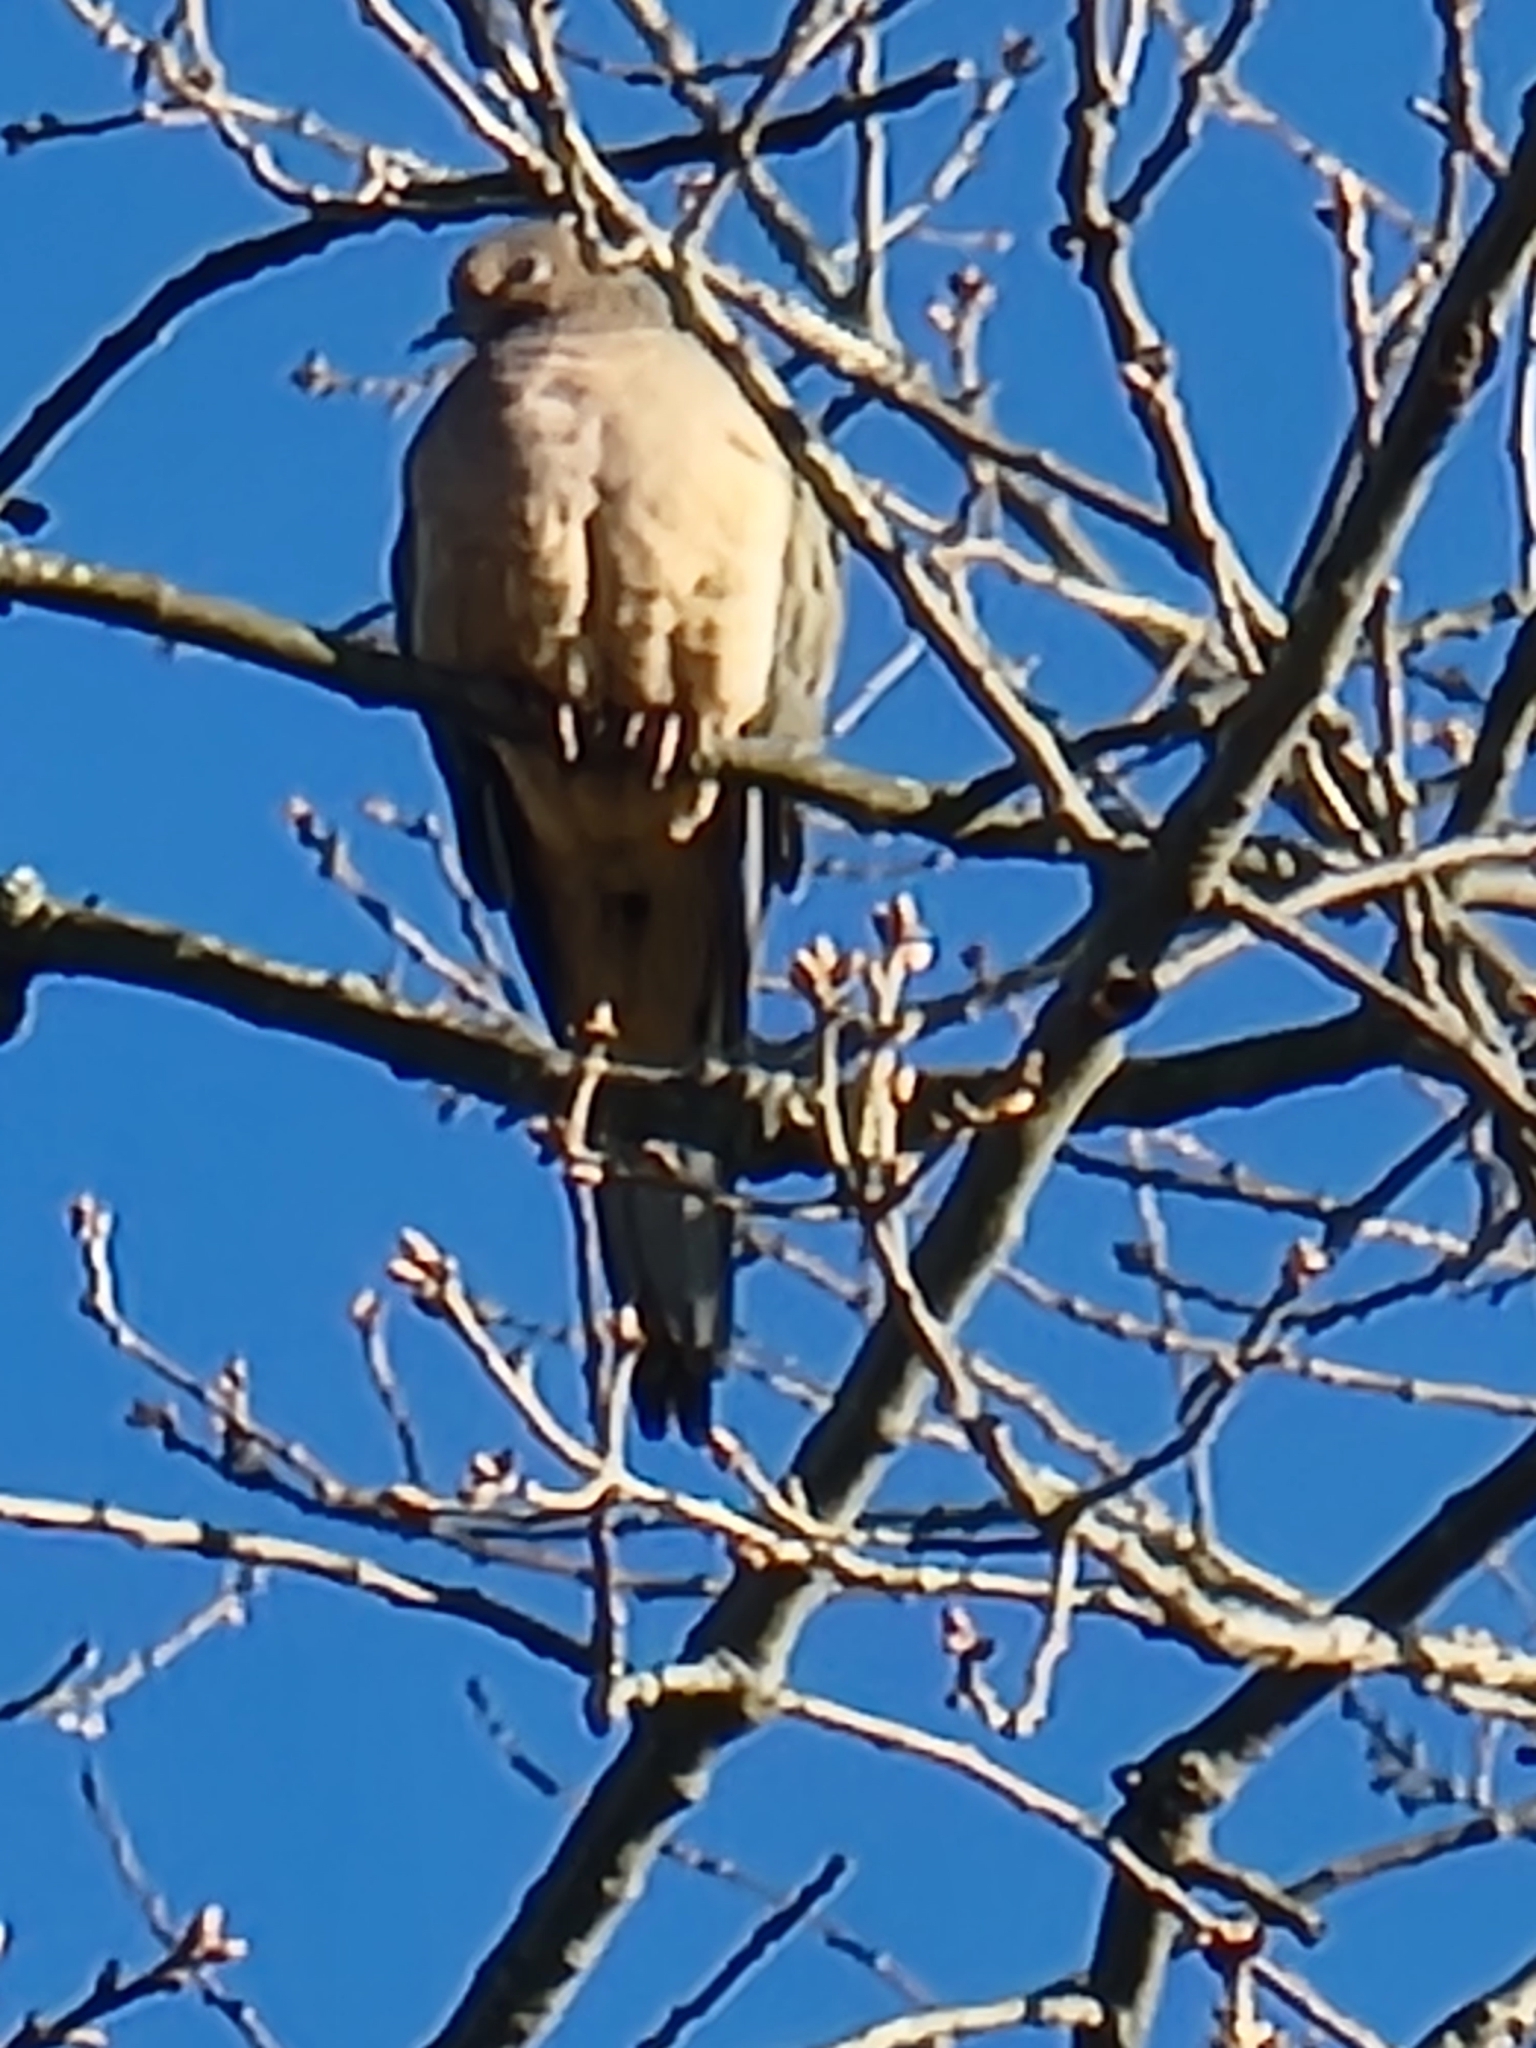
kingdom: Animalia
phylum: Chordata
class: Aves
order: Columbiformes
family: Columbidae
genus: Zenaida
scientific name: Zenaida macroura
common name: Mourning dove
